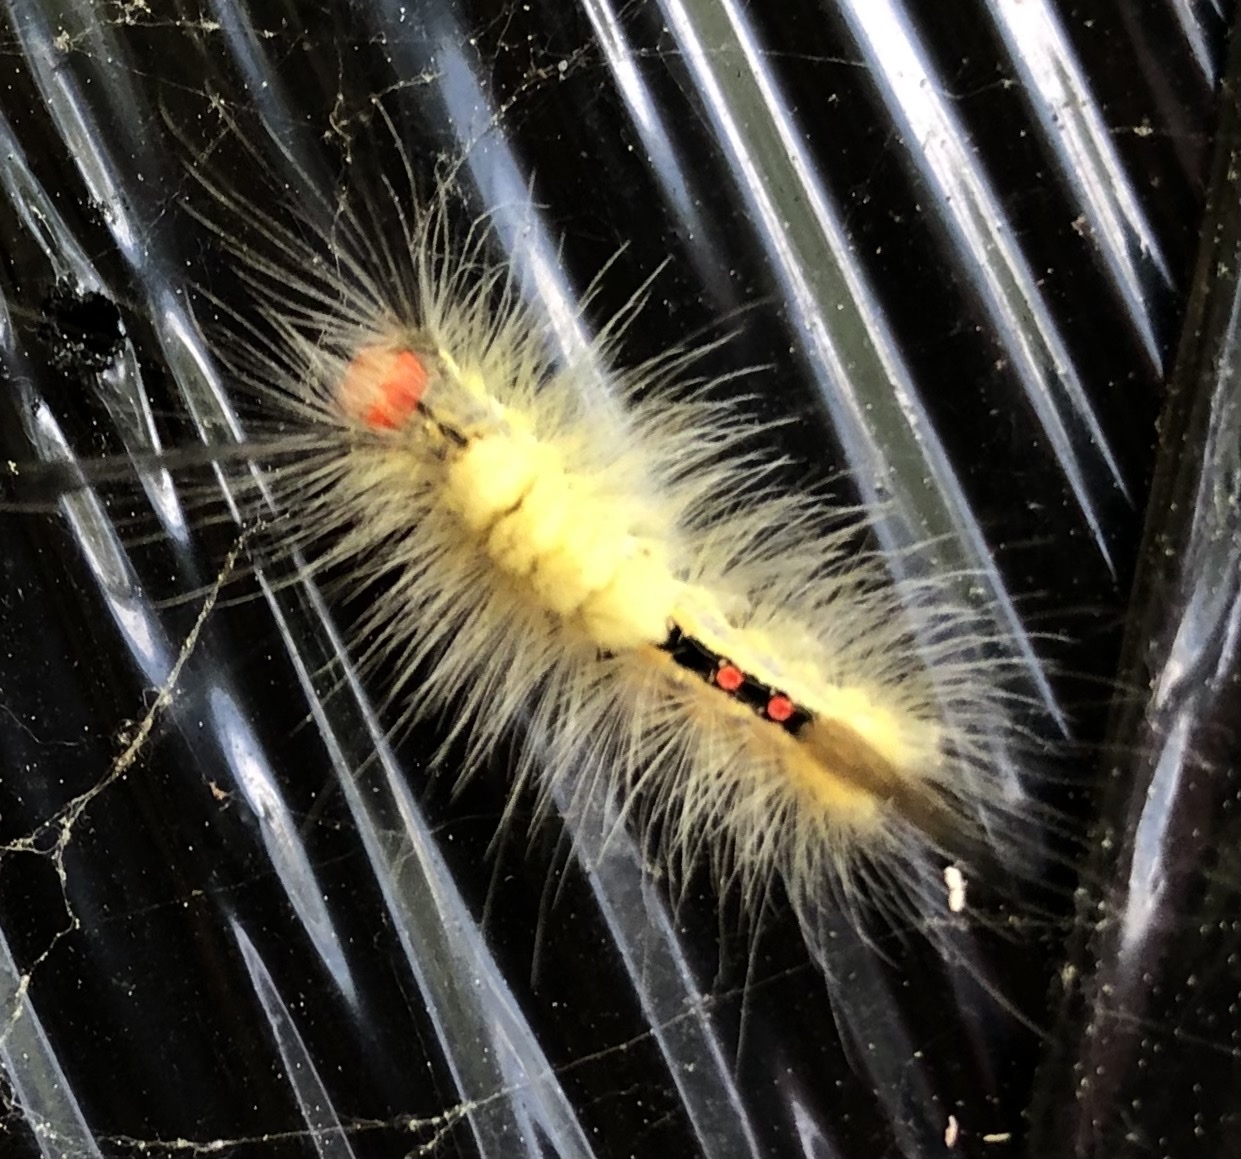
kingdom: Animalia
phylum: Arthropoda
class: Insecta
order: Lepidoptera
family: Erebidae
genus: Orgyia
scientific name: Orgyia leucostigma
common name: White-marked tussock moth
